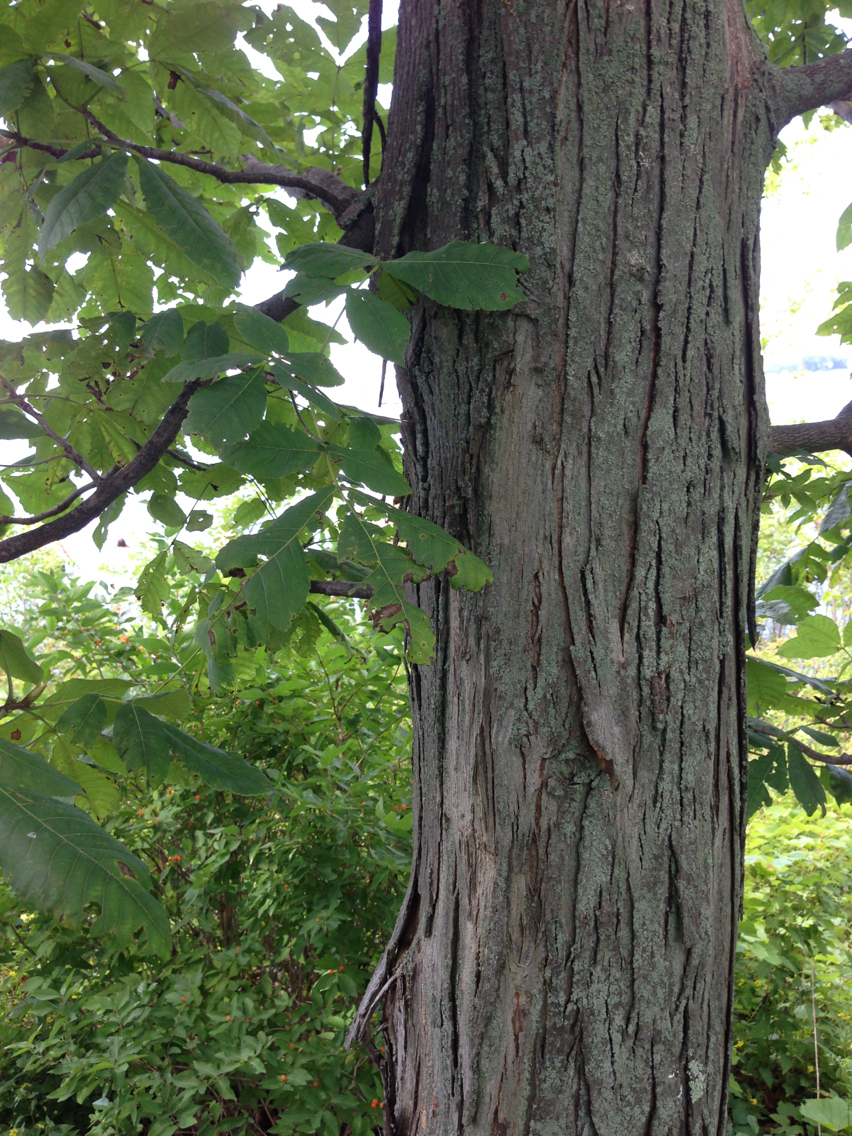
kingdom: Plantae
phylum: Tracheophyta
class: Magnoliopsida
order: Fagales
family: Juglandaceae
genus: Carya
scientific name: Carya ovata
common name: Shagbark hickory
